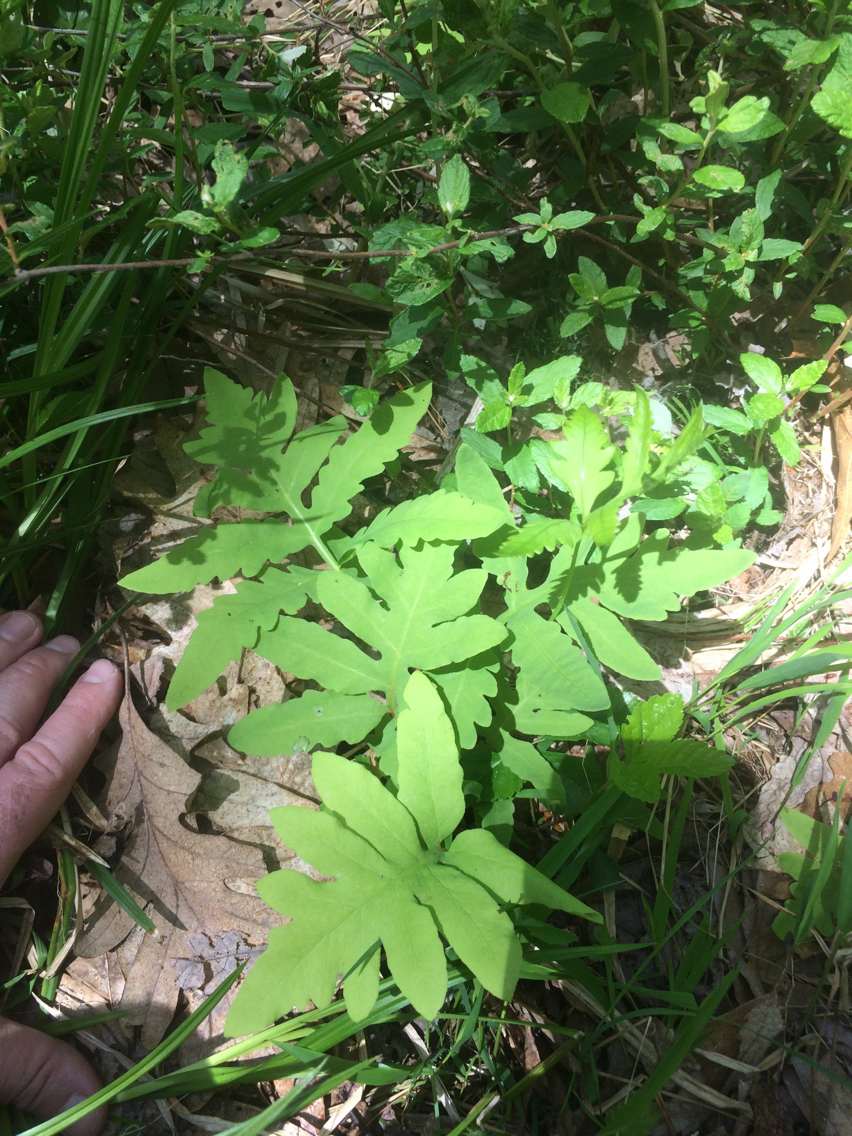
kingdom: Plantae
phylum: Tracheophyta
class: Polypodiopsida
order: Polypodiales
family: Onocleaceae
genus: Onoclea
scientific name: Onoclea sensibilis
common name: Sensitive fern
